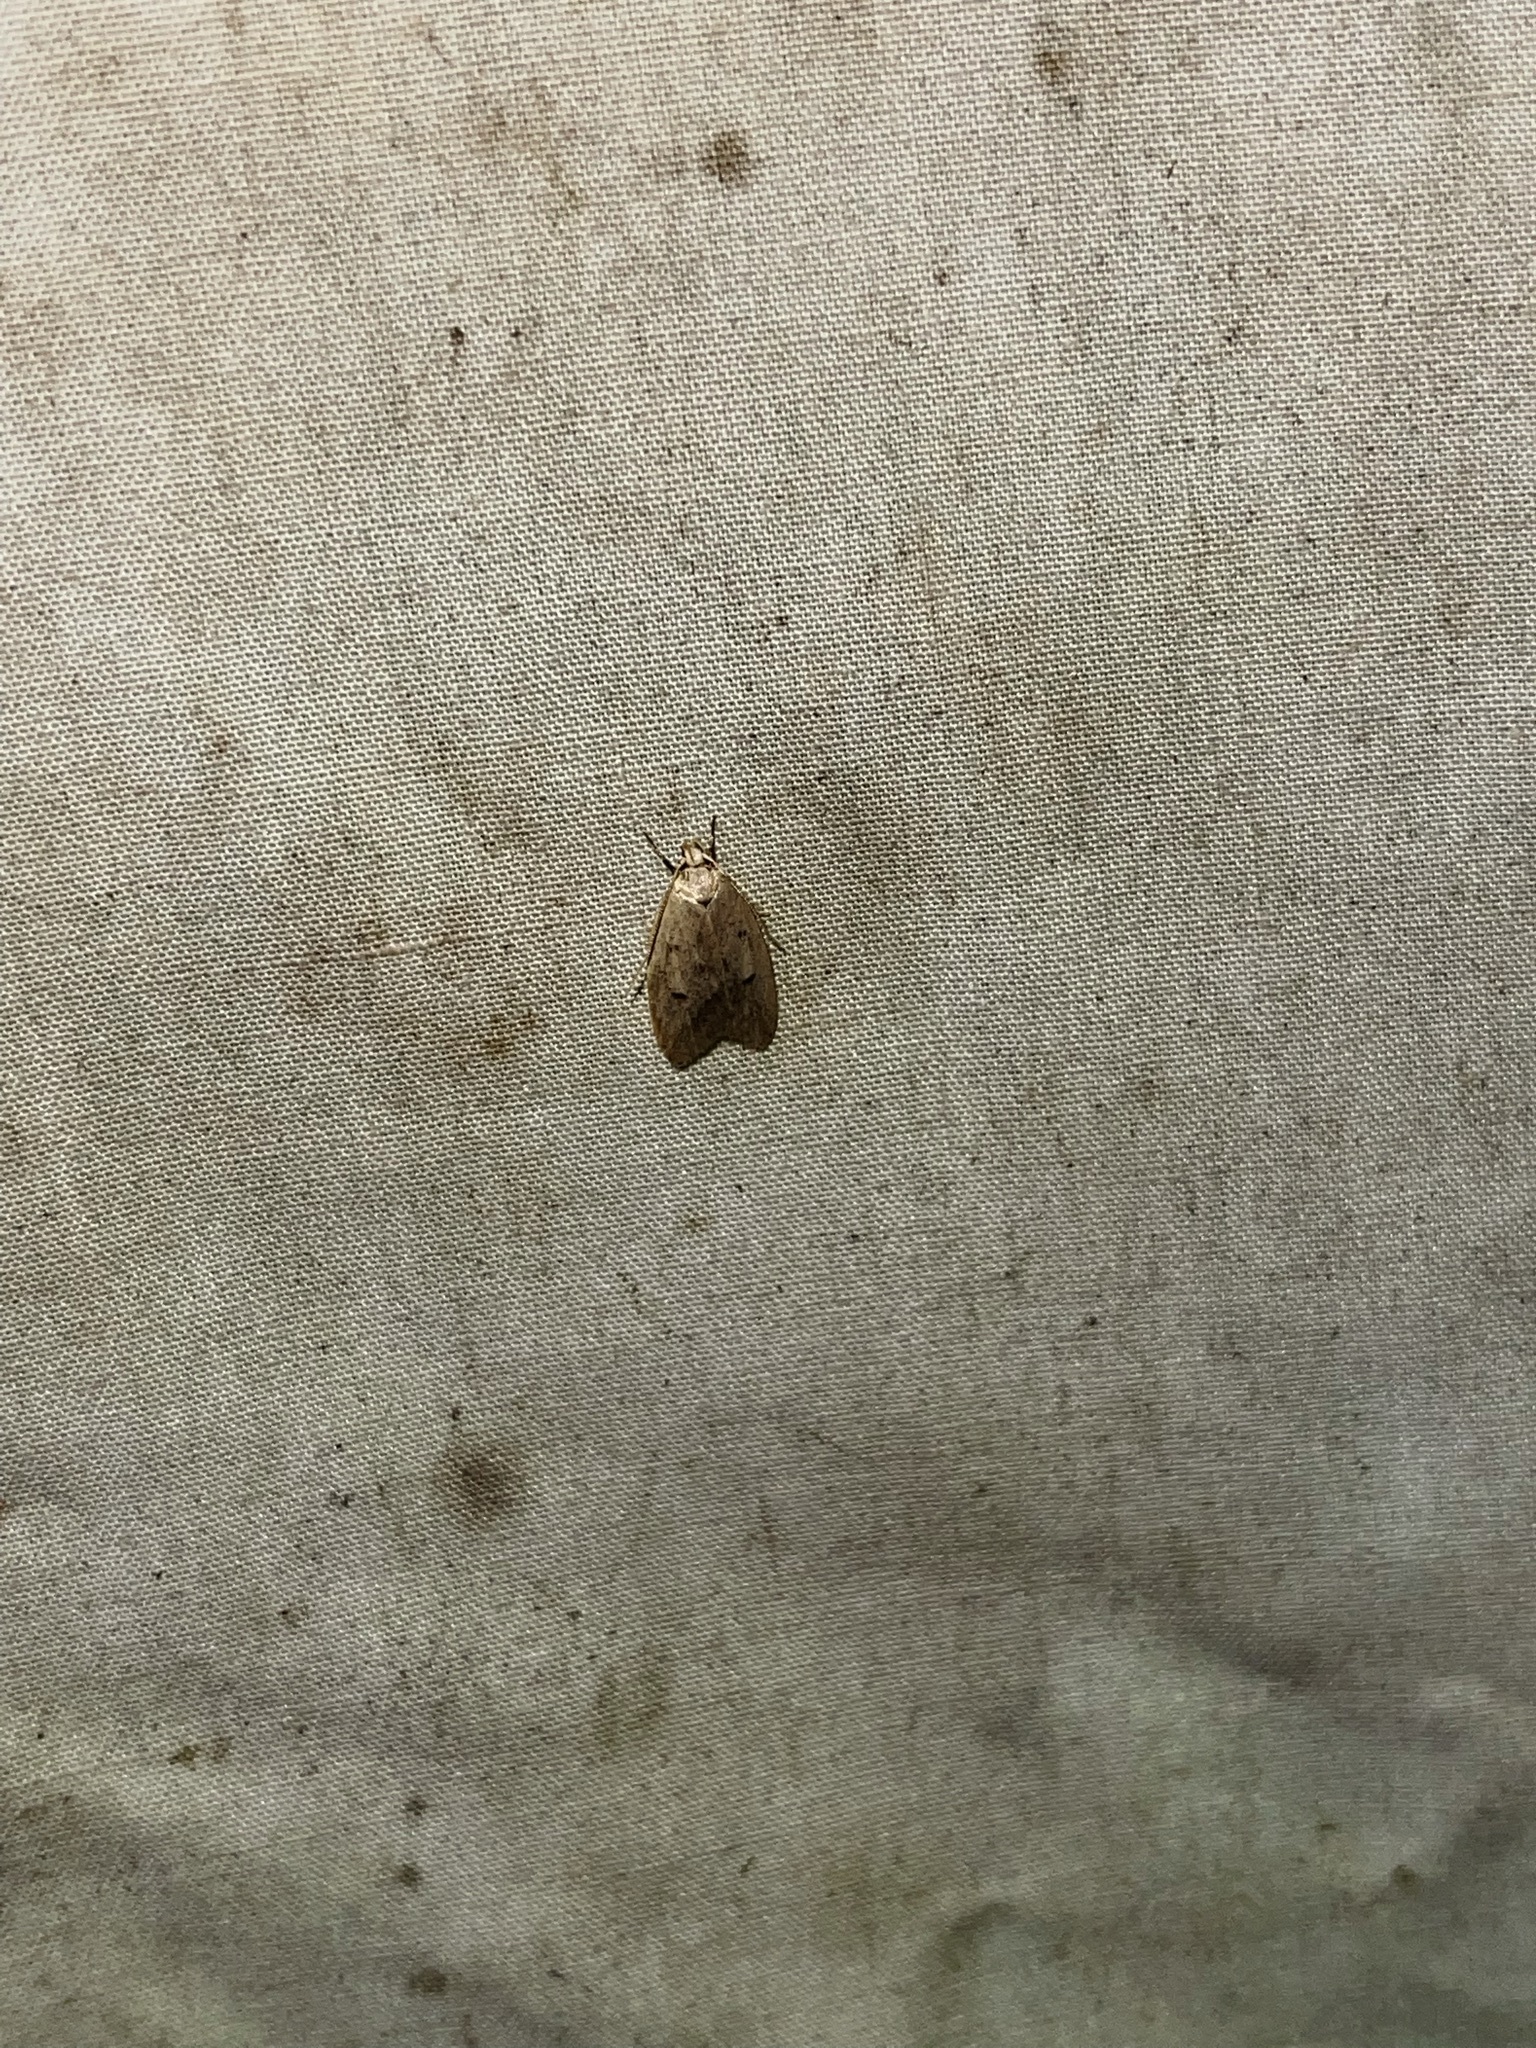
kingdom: Animalia
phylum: Arthropoda
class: Insecta
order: Lepidoptera
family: Peleopodidae
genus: Machimia
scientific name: Machimia tentoriferella
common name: Gold-striped leaftier moth
